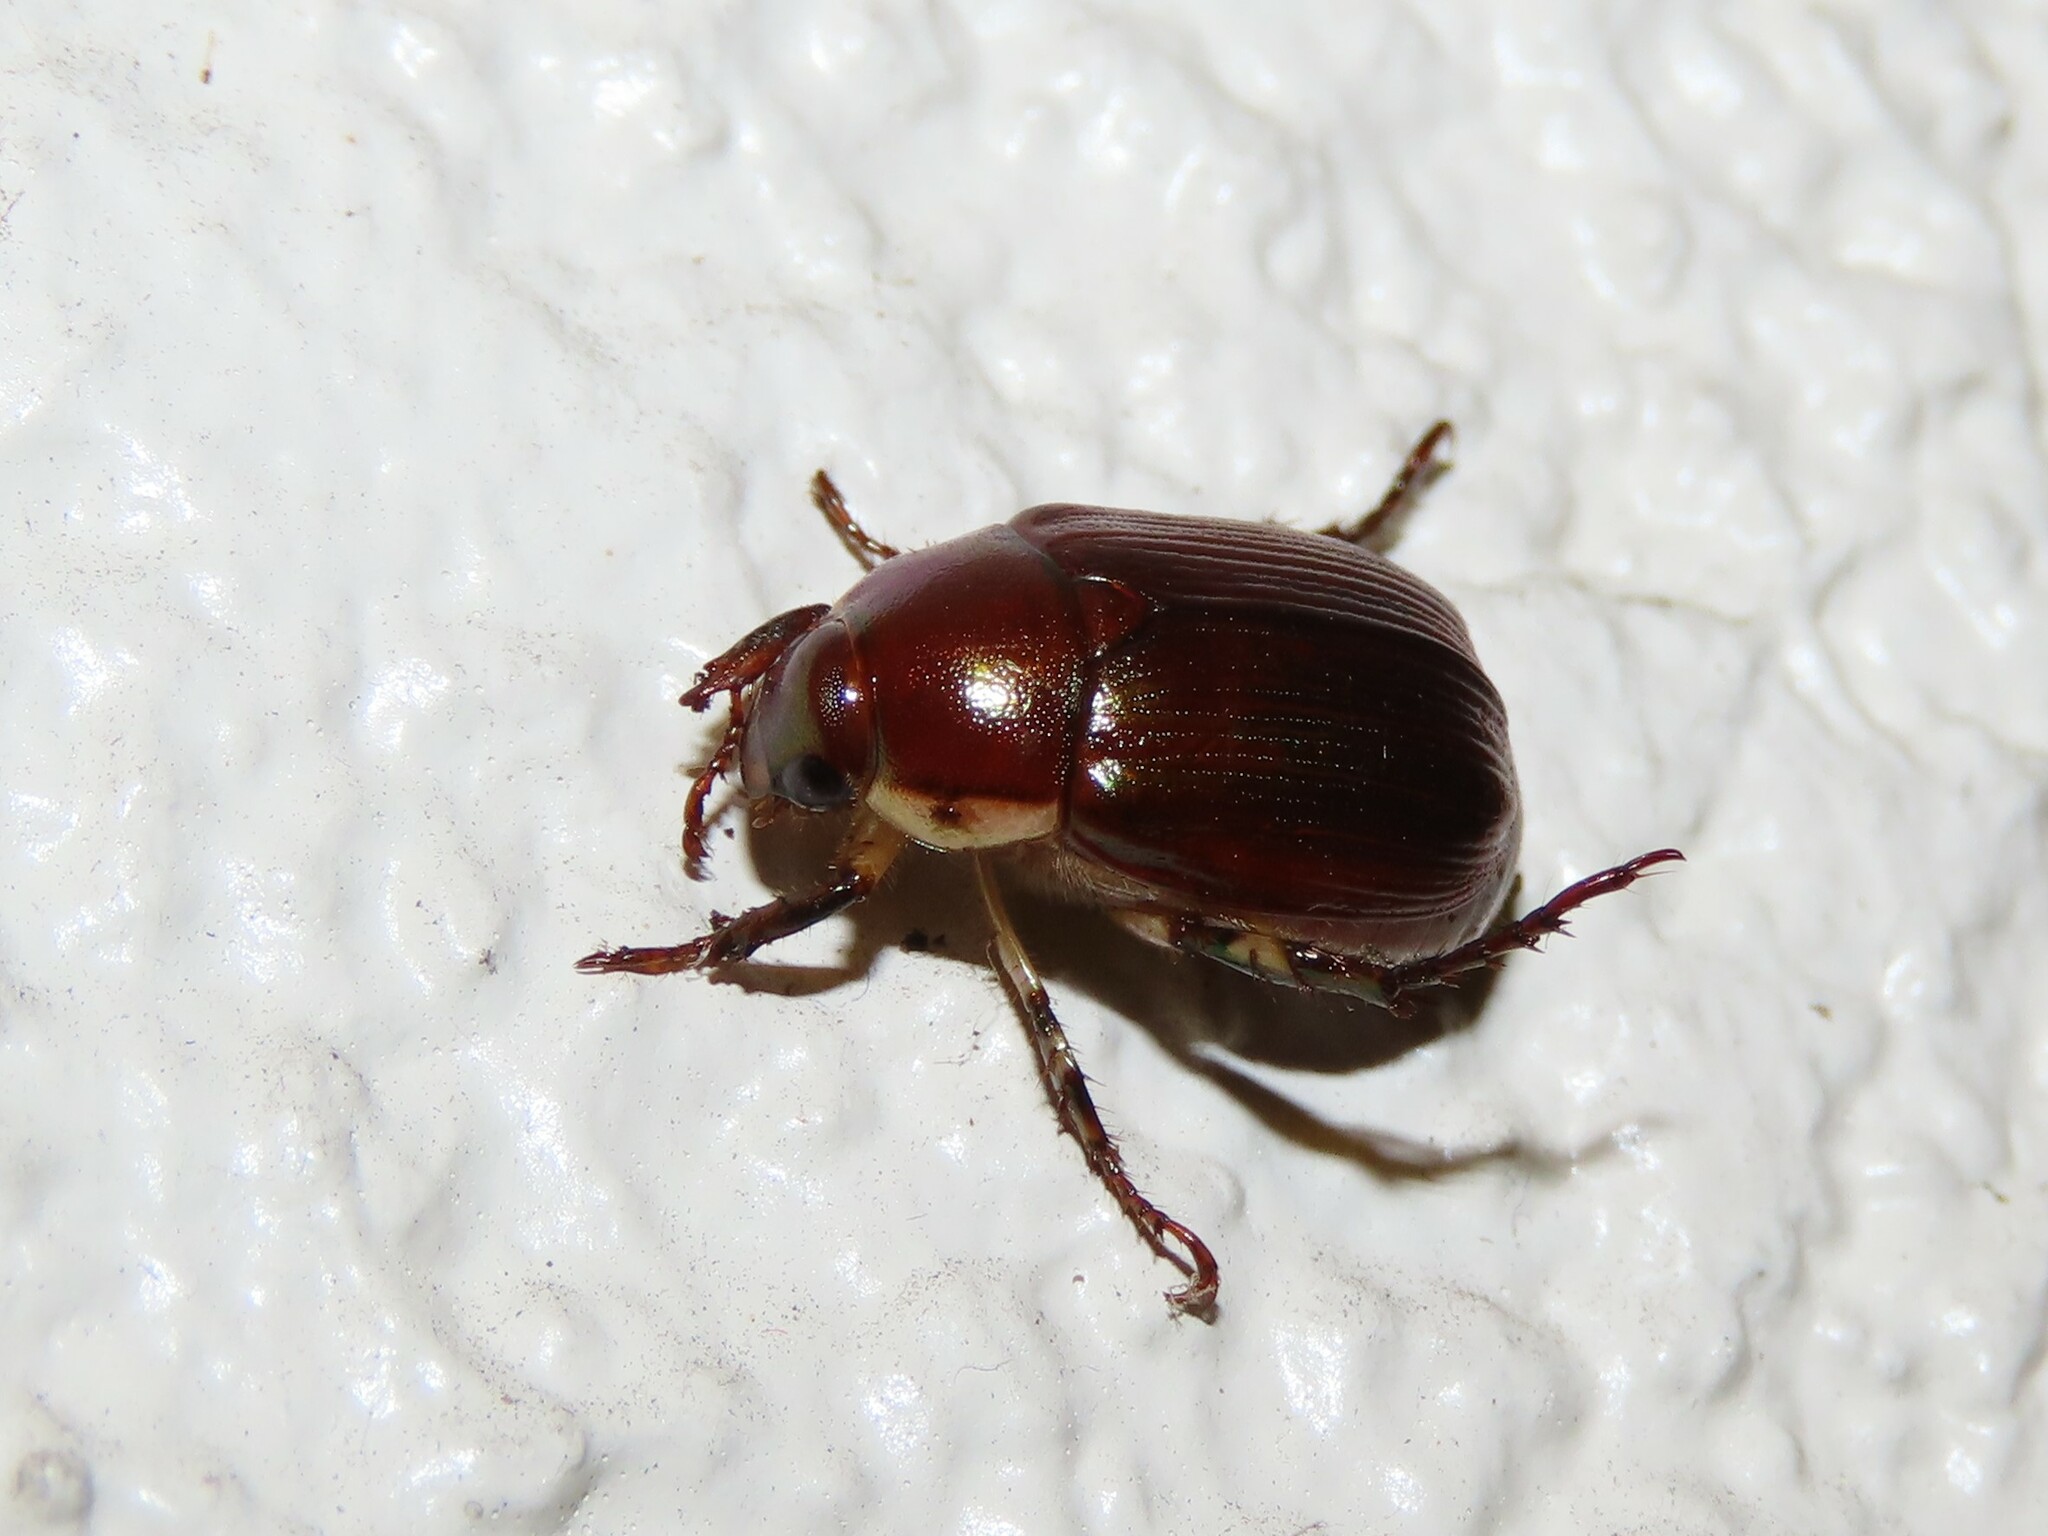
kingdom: Animalia
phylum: Arthropoda
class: Insecta
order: Coleoptera
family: Scarabaeidae
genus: Callistethus
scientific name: Callistethus marginatus
